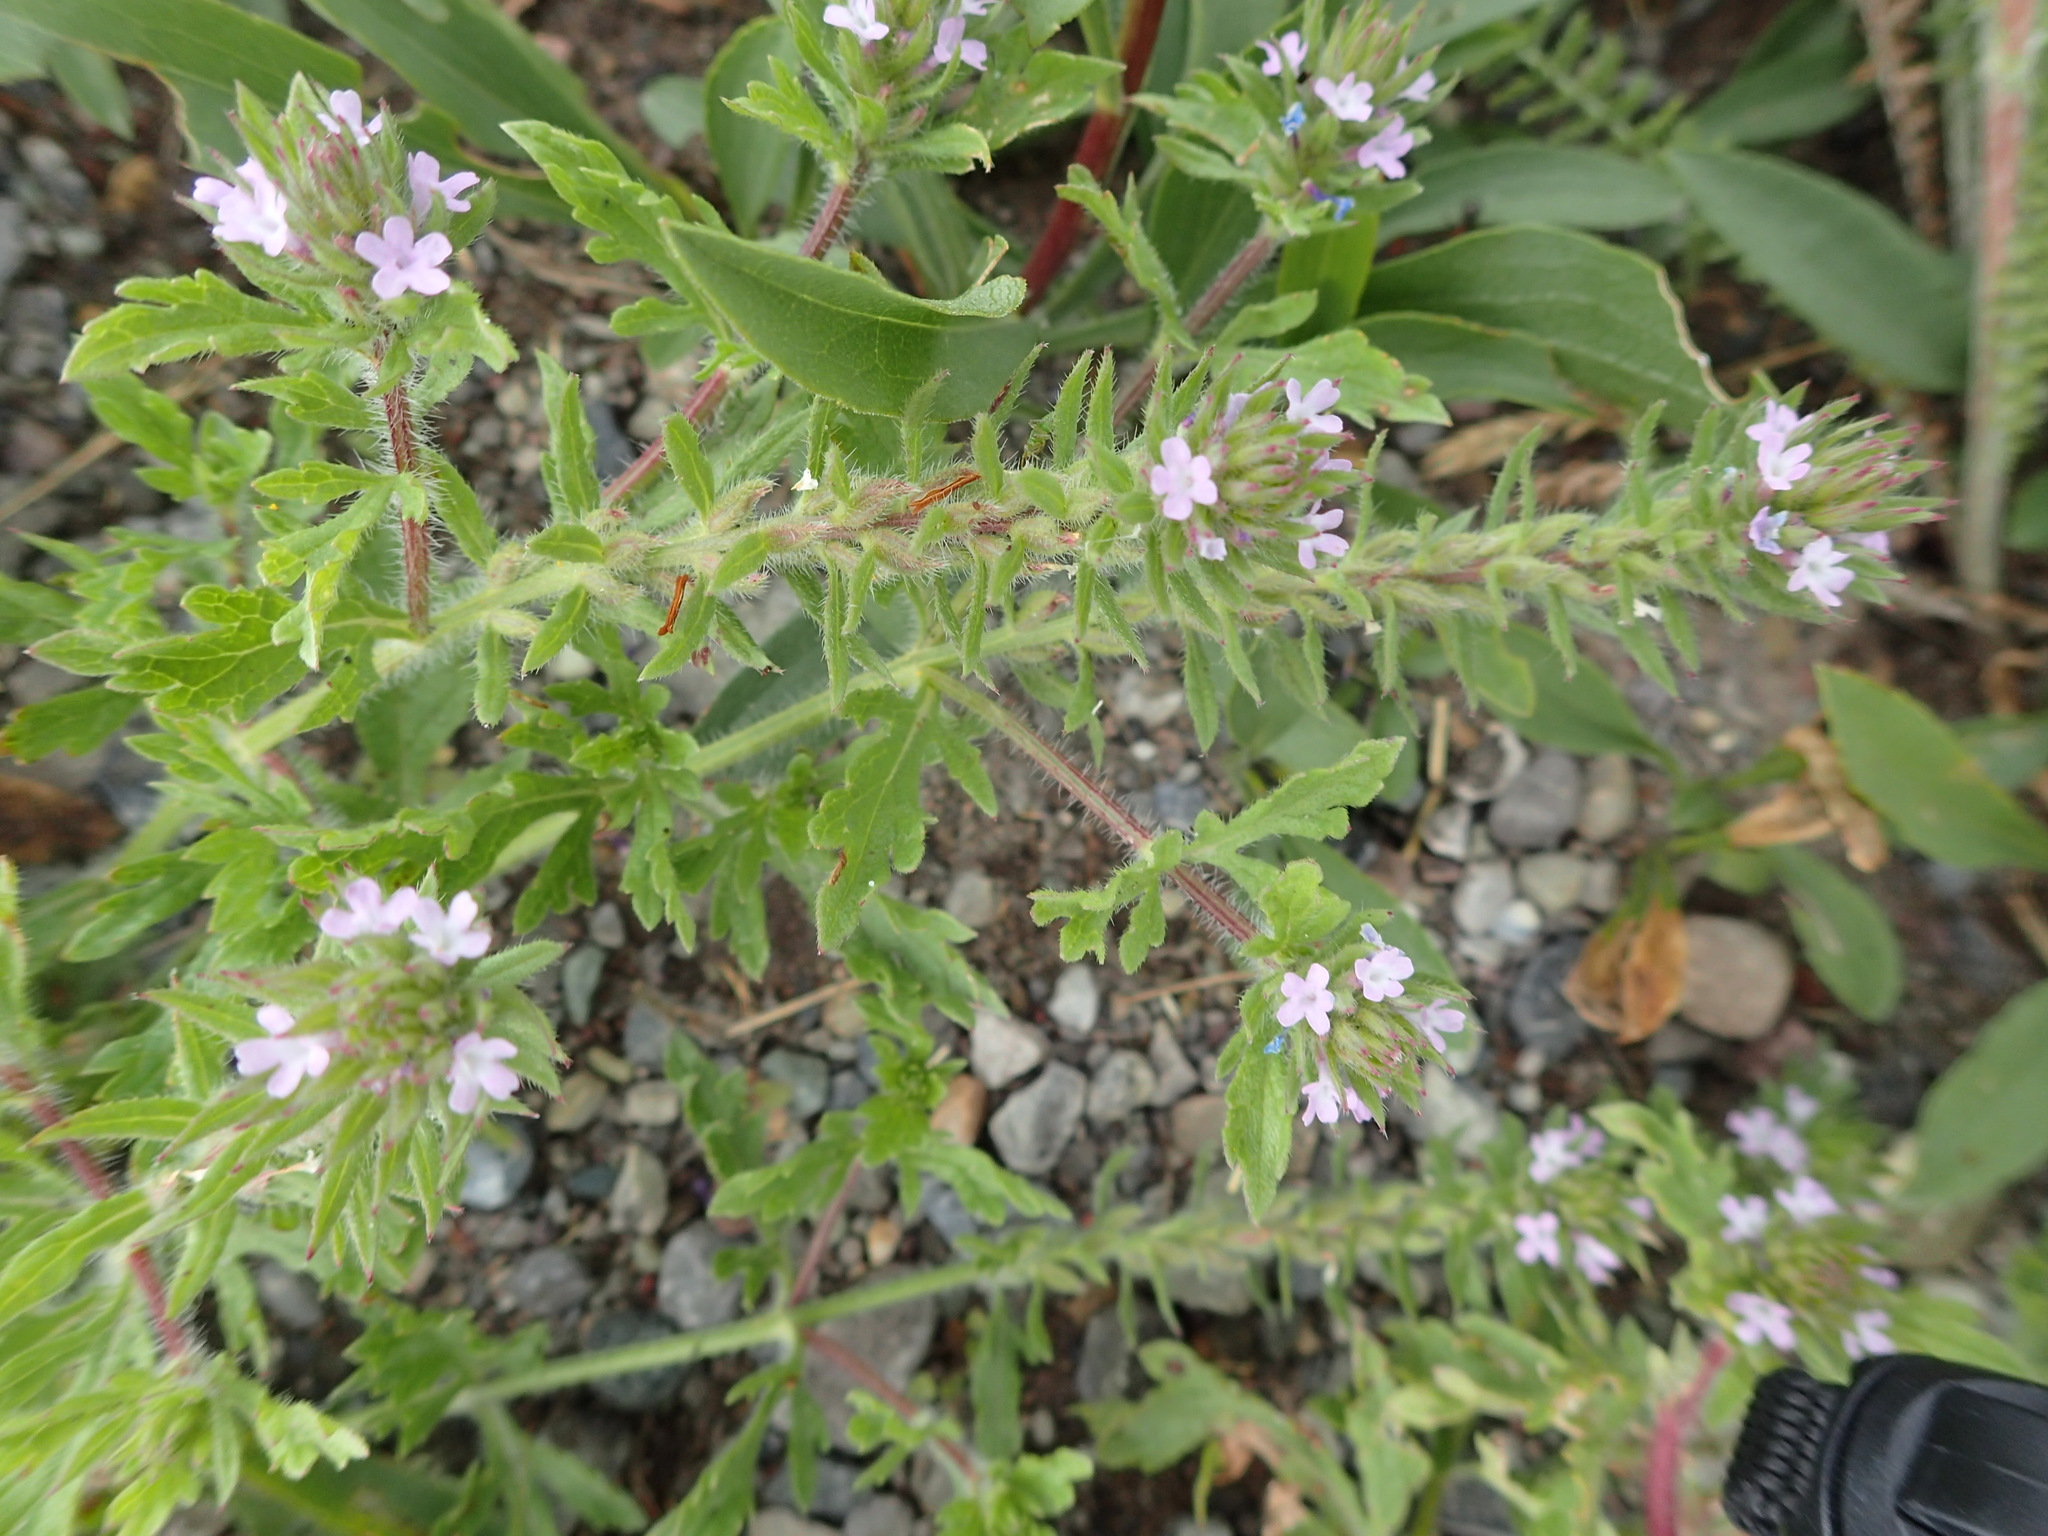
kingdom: Plantae
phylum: Tracheophyta
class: Magnoliopsida
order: Lamiales
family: Verbenaceae
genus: Verbena
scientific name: Verbena bracteata
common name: Bracted vervain
